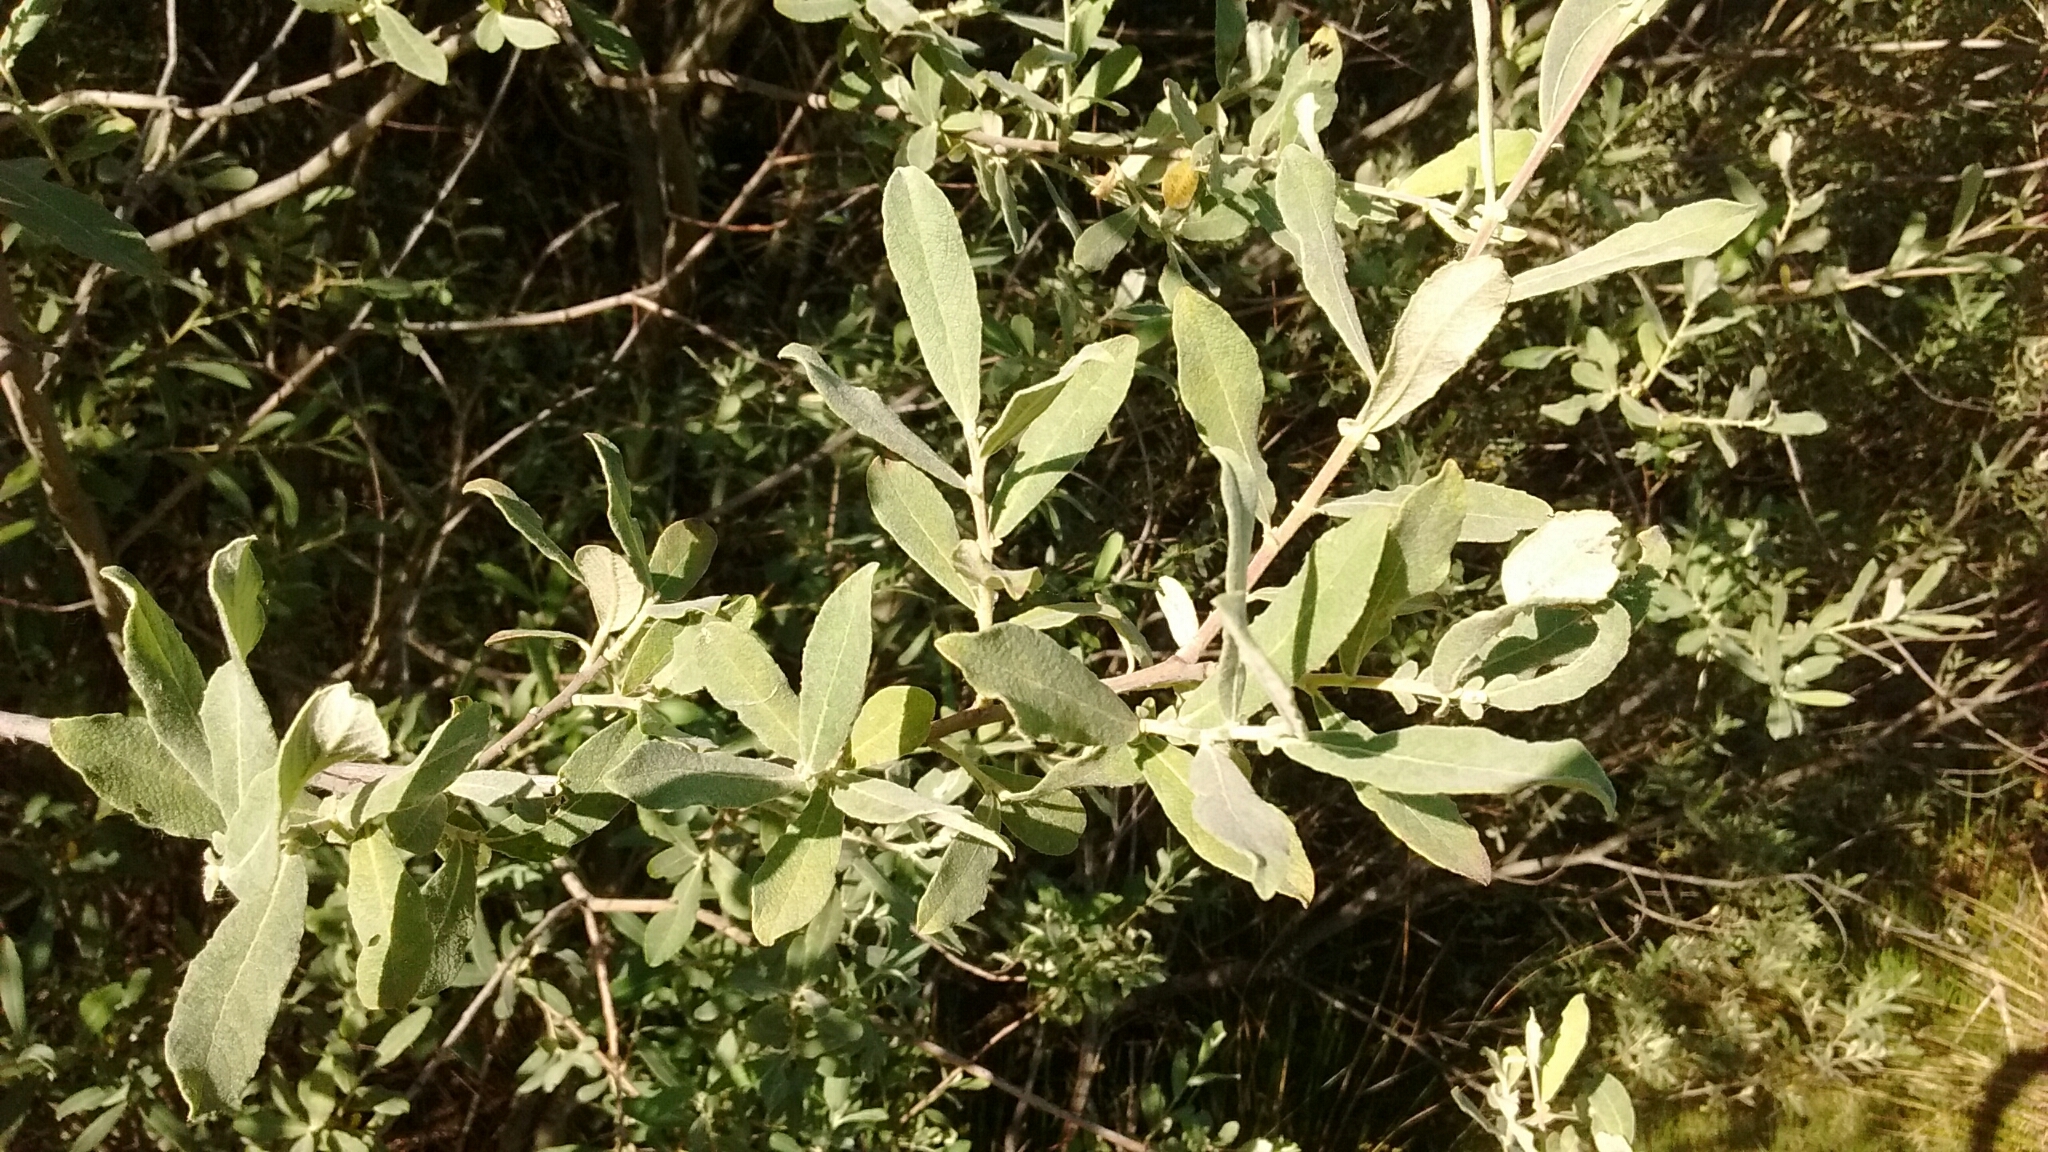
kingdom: Plantae
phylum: Tracheophyta
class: Magnoliopsida
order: Malpighiales
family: Salicaceae
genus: Salix
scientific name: Salix salviifolia
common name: Salvia-leaf willow
